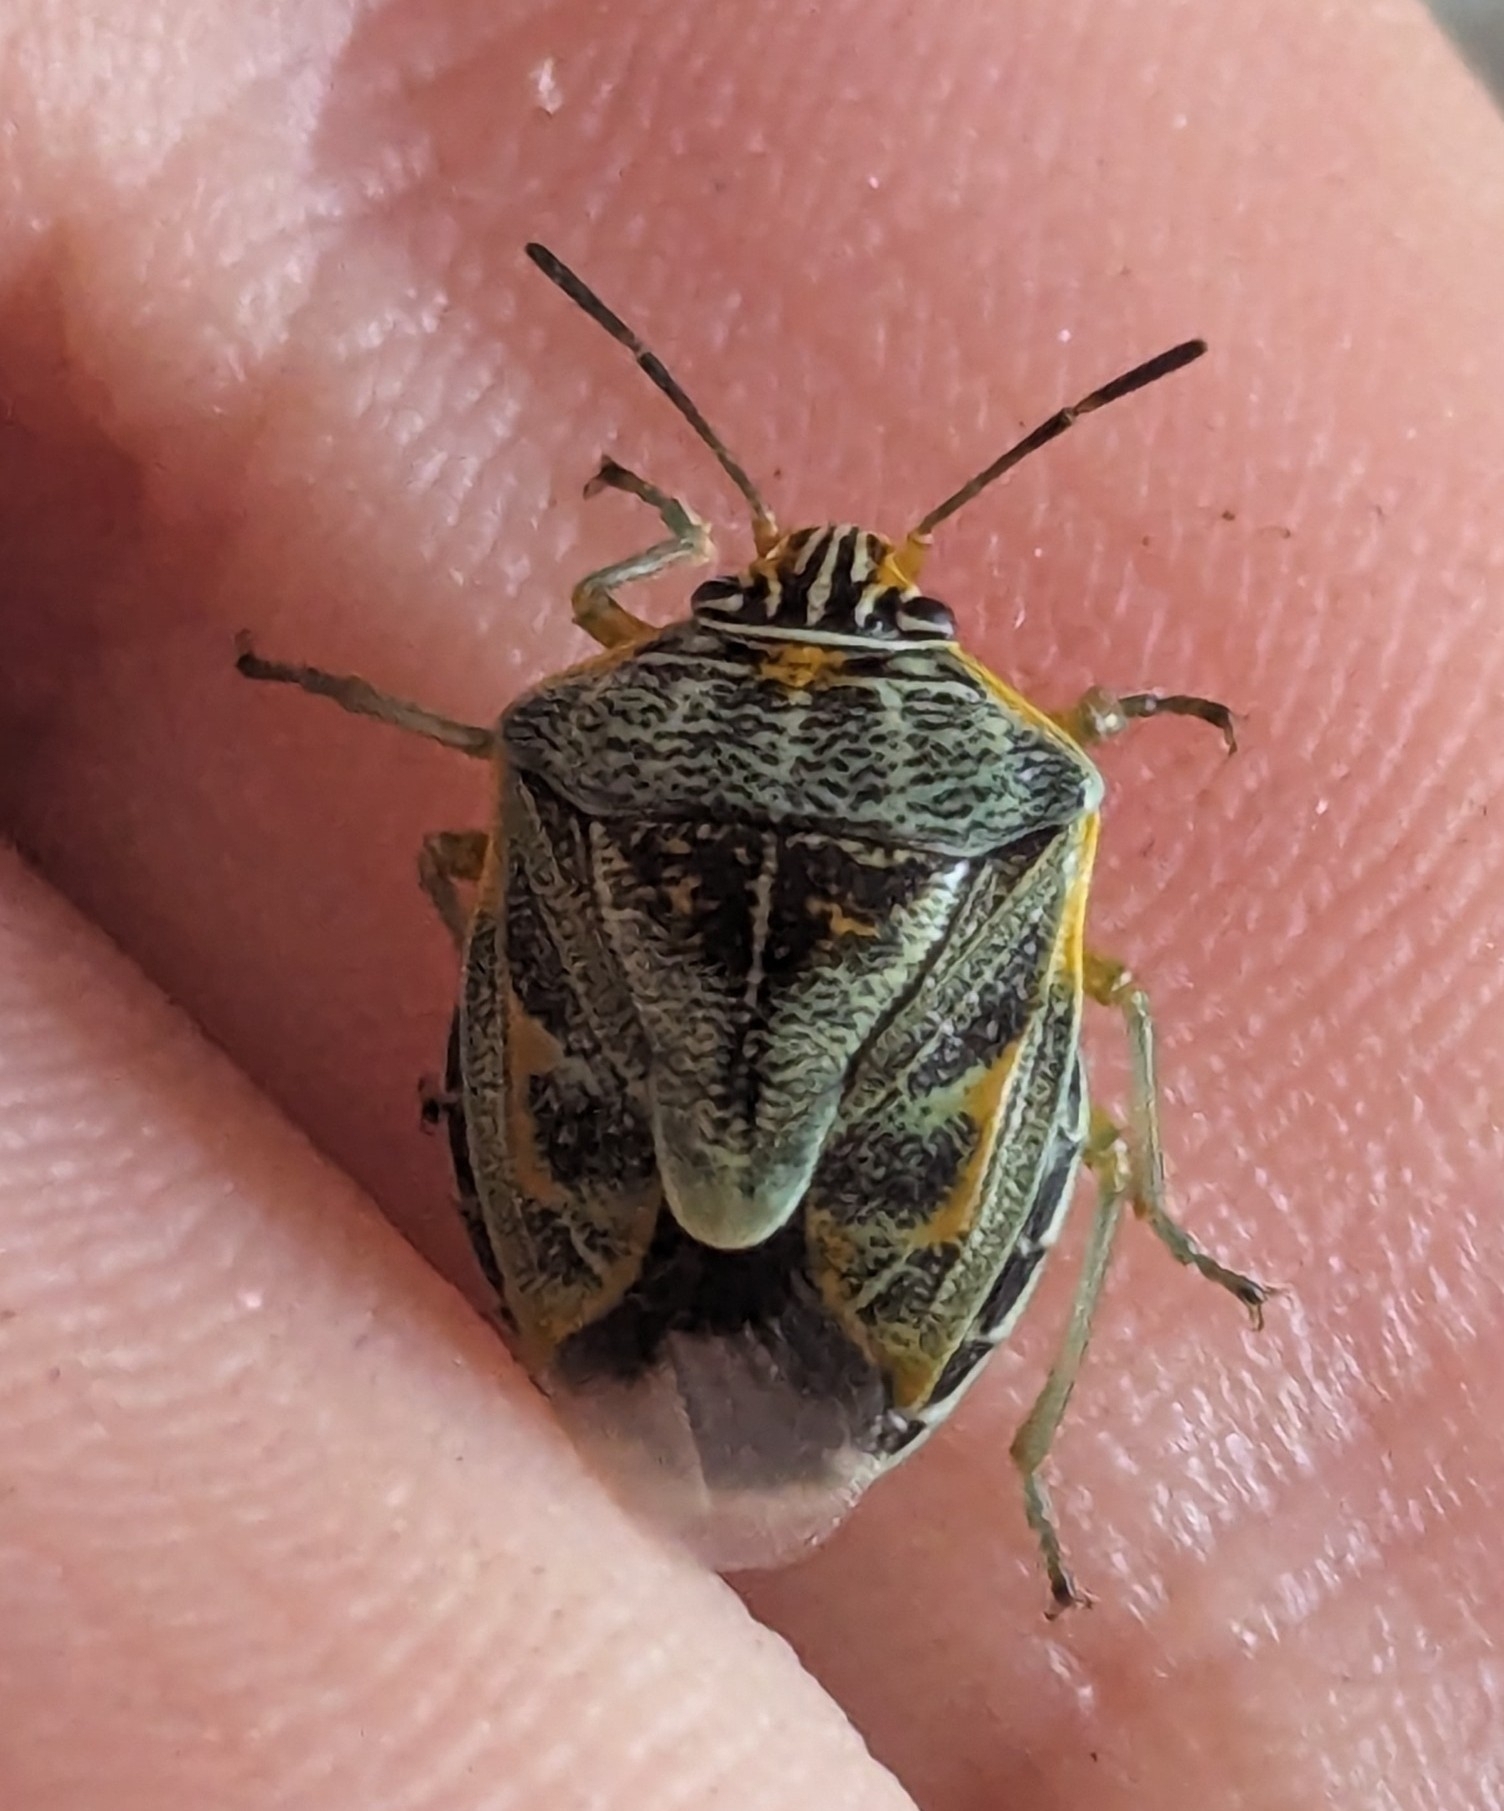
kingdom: Animalia
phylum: Arthropoda
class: Insecta
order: Hemiptera
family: Pentatomidae
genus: Antestiopsis
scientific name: Antestiopsis thunbergii
